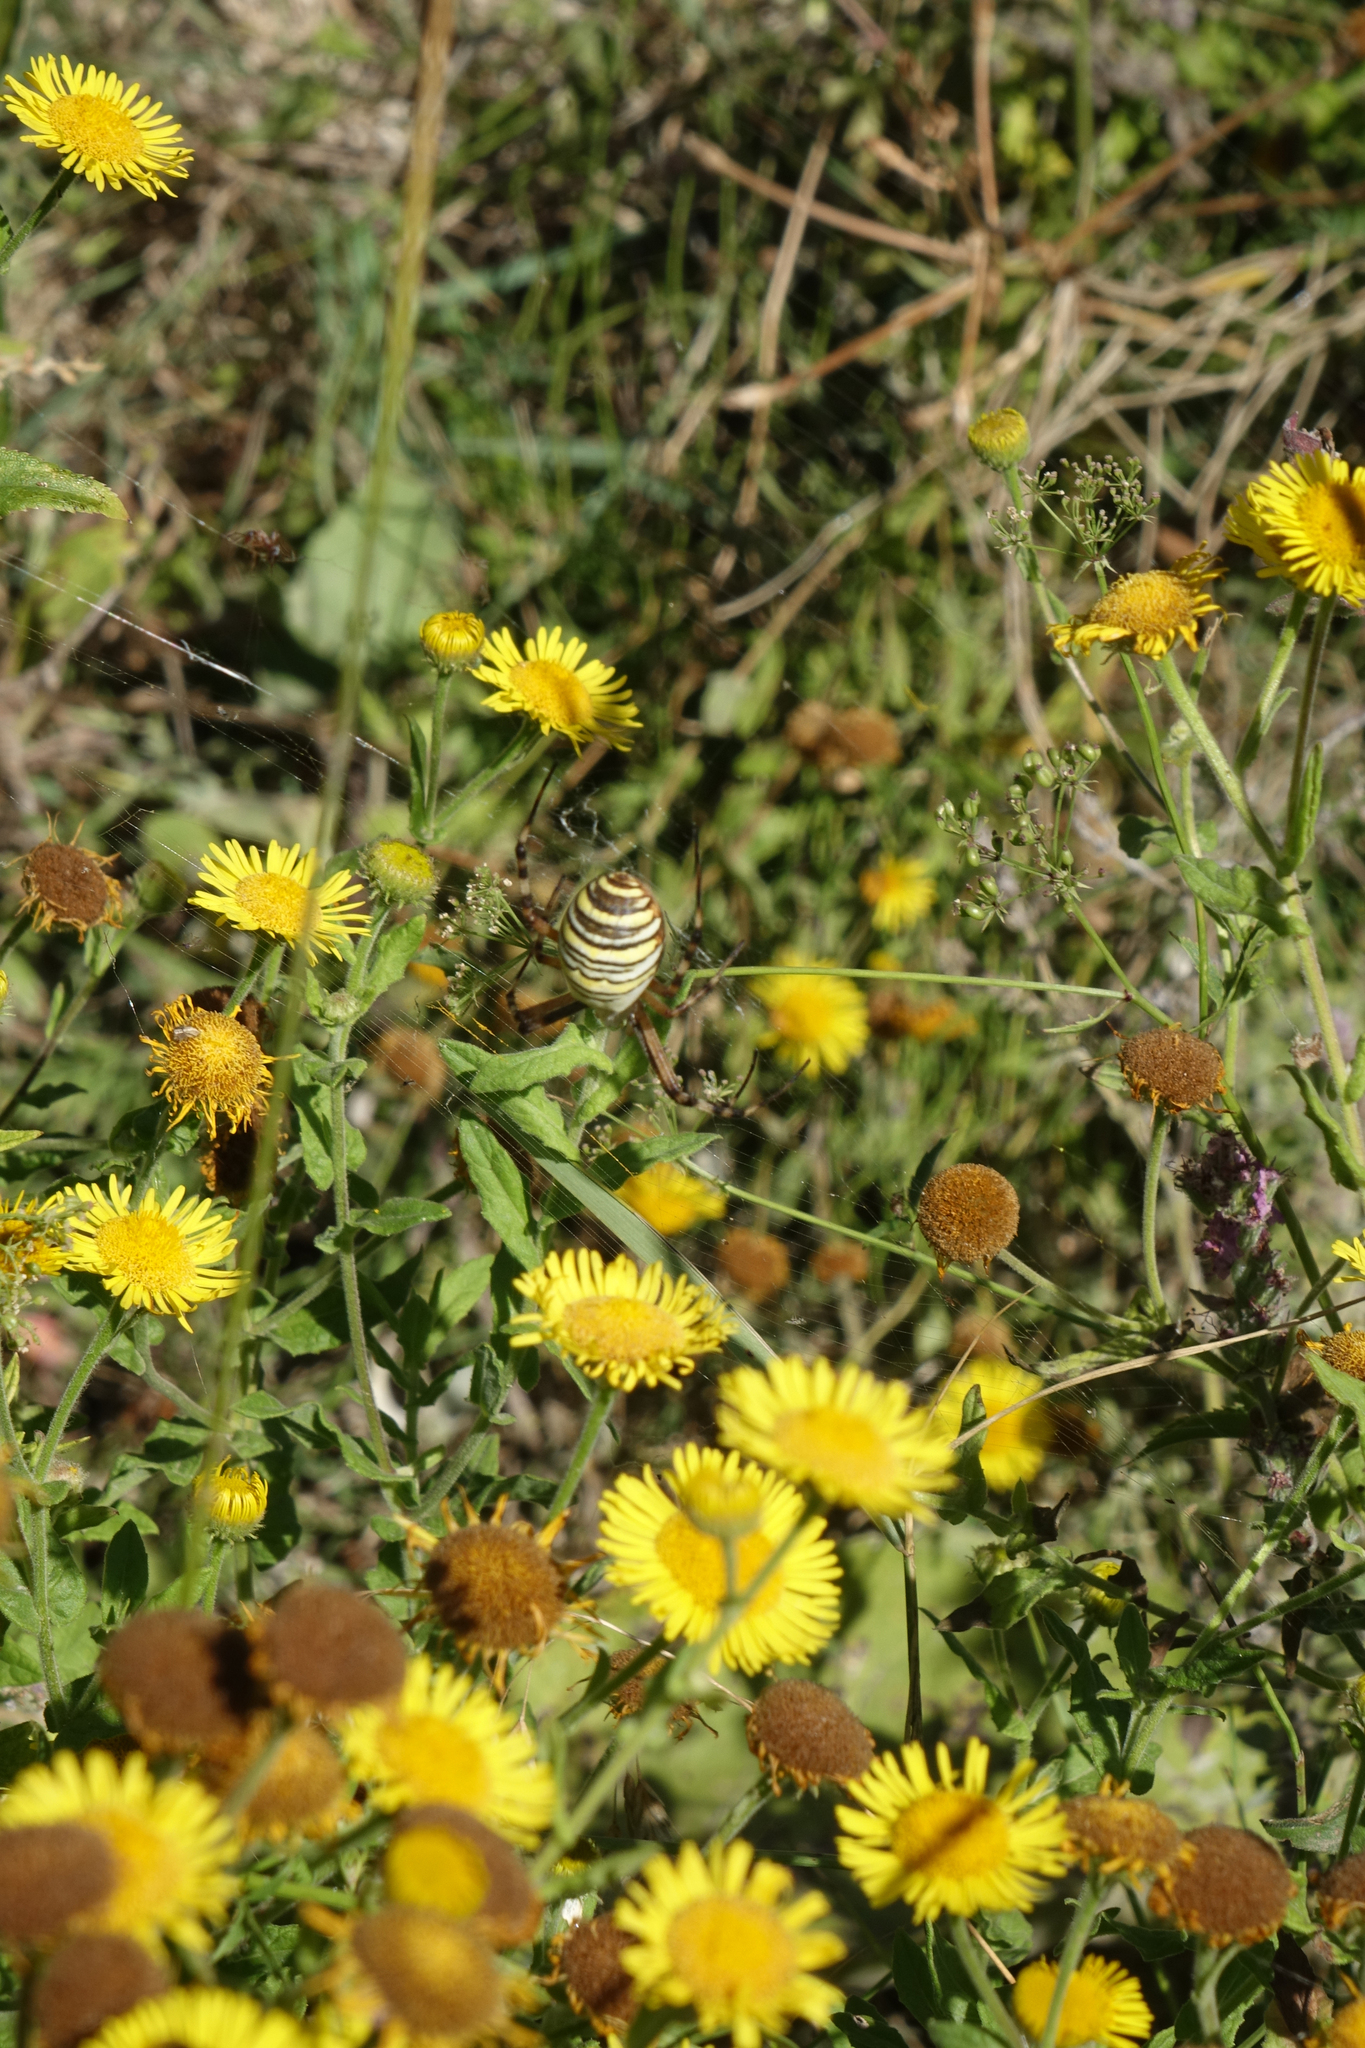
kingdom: Plantae
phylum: Tracheophyta
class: Magnoliopsida
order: Asterales
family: Asteraceae
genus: Pentanema
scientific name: Pentanema britannicum
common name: British elecampane
